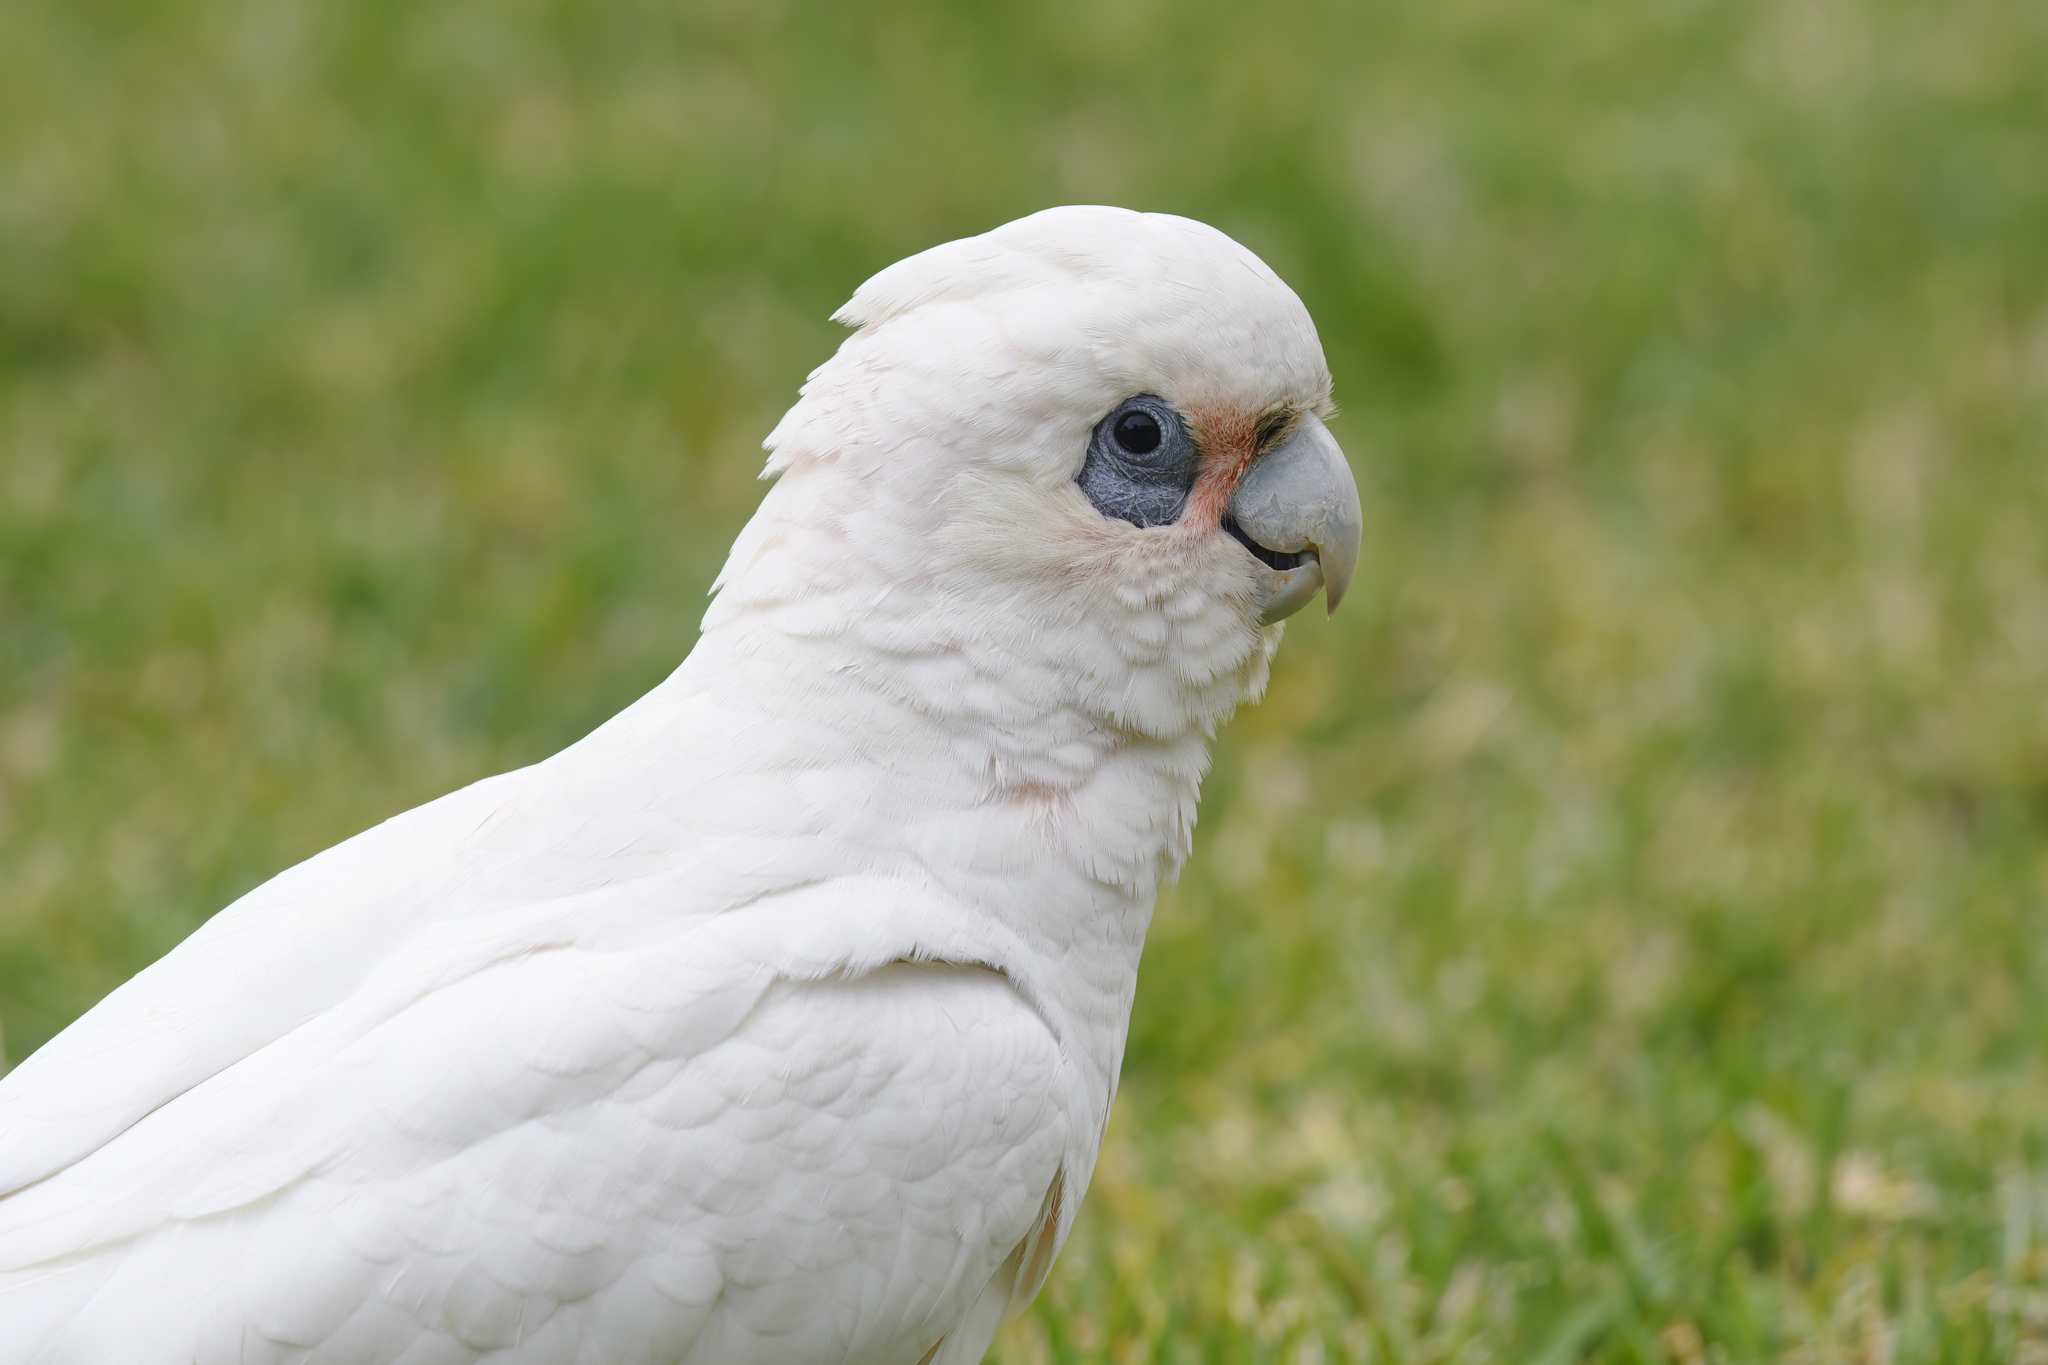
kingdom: Animalia
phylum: Chordata
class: Aves
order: Psittaciformes
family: Psittacidae
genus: Cacatua
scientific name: Cacatua sanguinea
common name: Little corella
